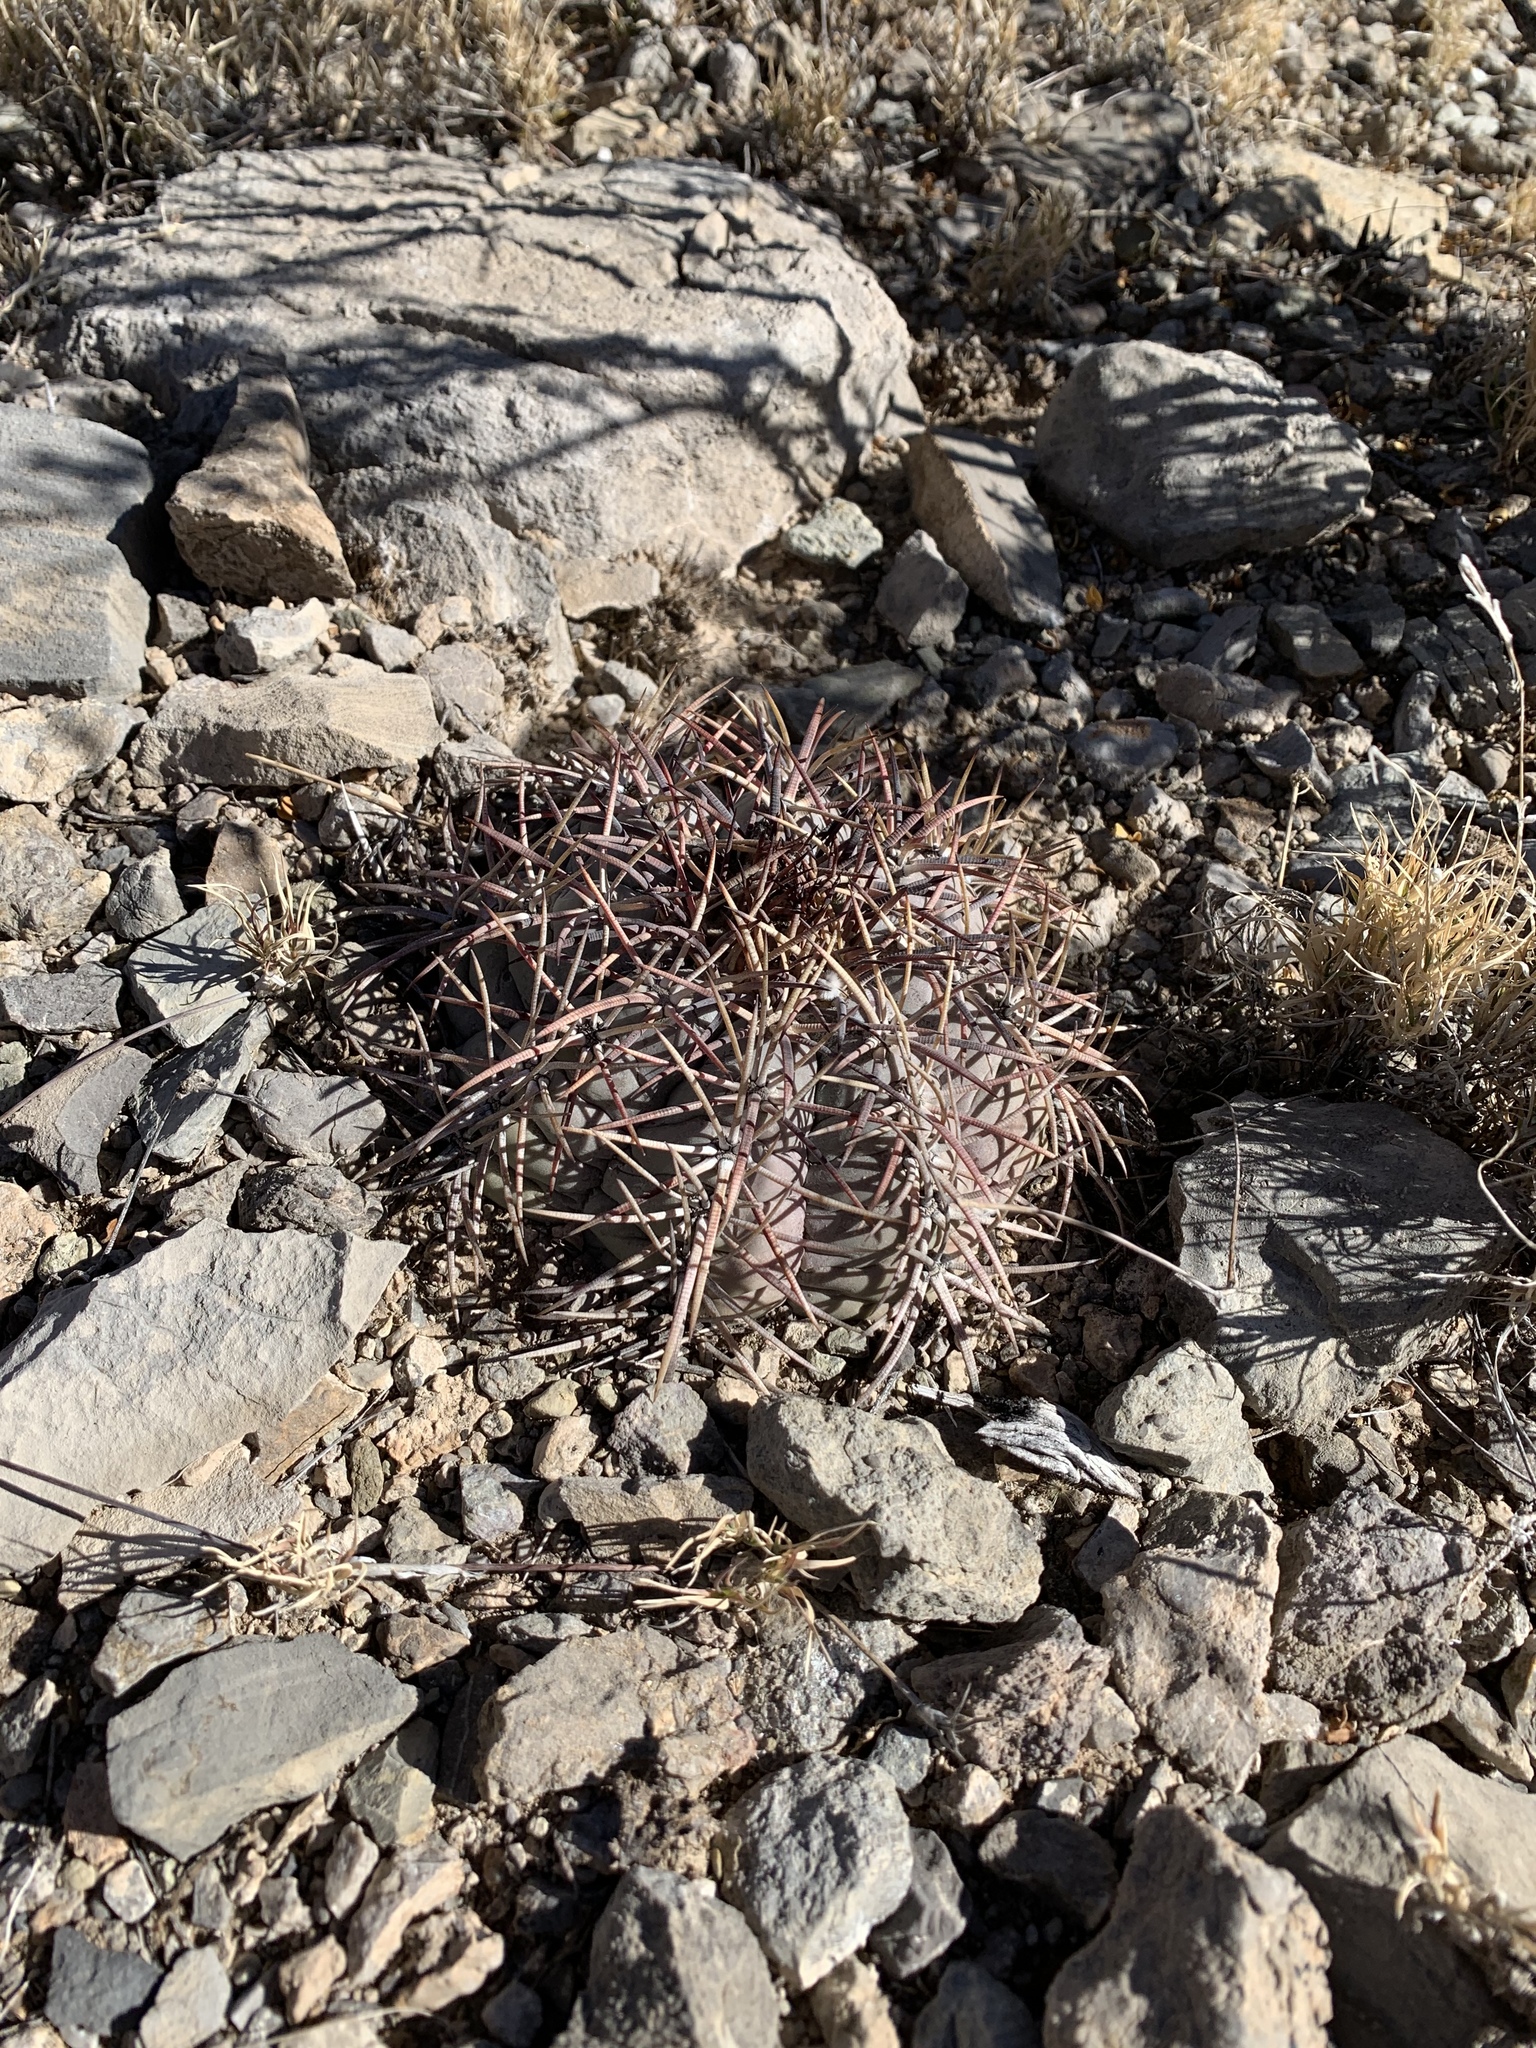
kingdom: Plantae
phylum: Tracheophyta
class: Magnoliopsida
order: Caryophyllales
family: Cactaceae
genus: Echinocactus
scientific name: Echinocactus horizonthalonius
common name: Devilshead
